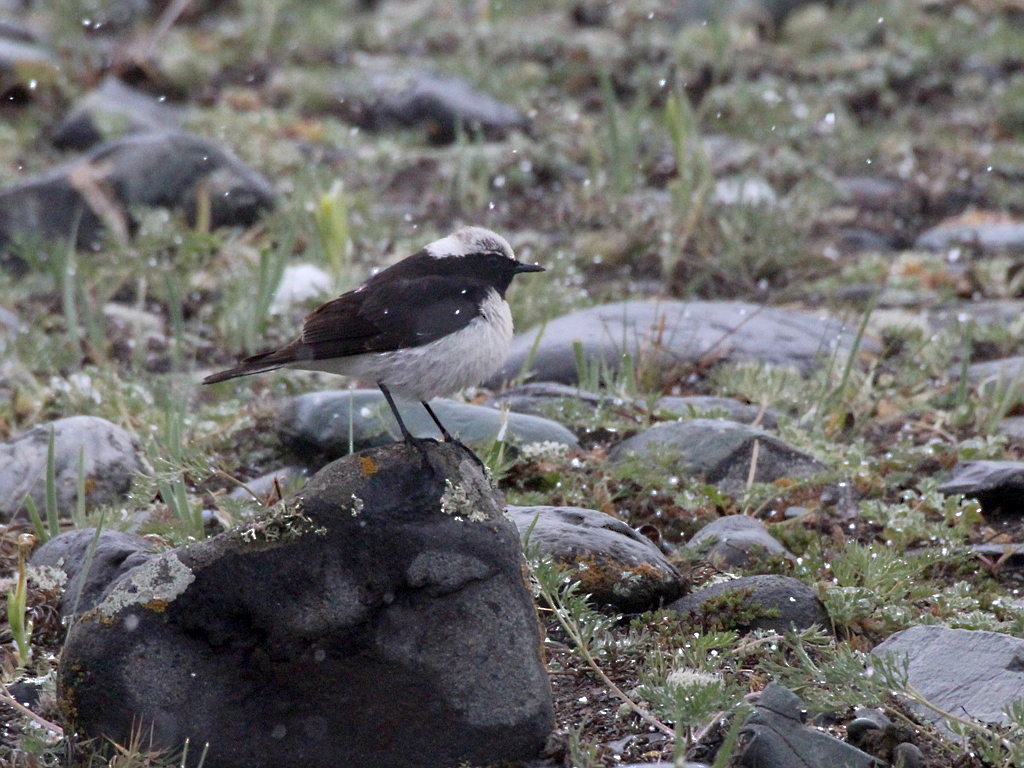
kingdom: Animalia
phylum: Chordata
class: Aves
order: Passeriformes
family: Muscicapidae
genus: Oenanthe
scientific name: Oenanthe pleschanka
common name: Pied wheatear
